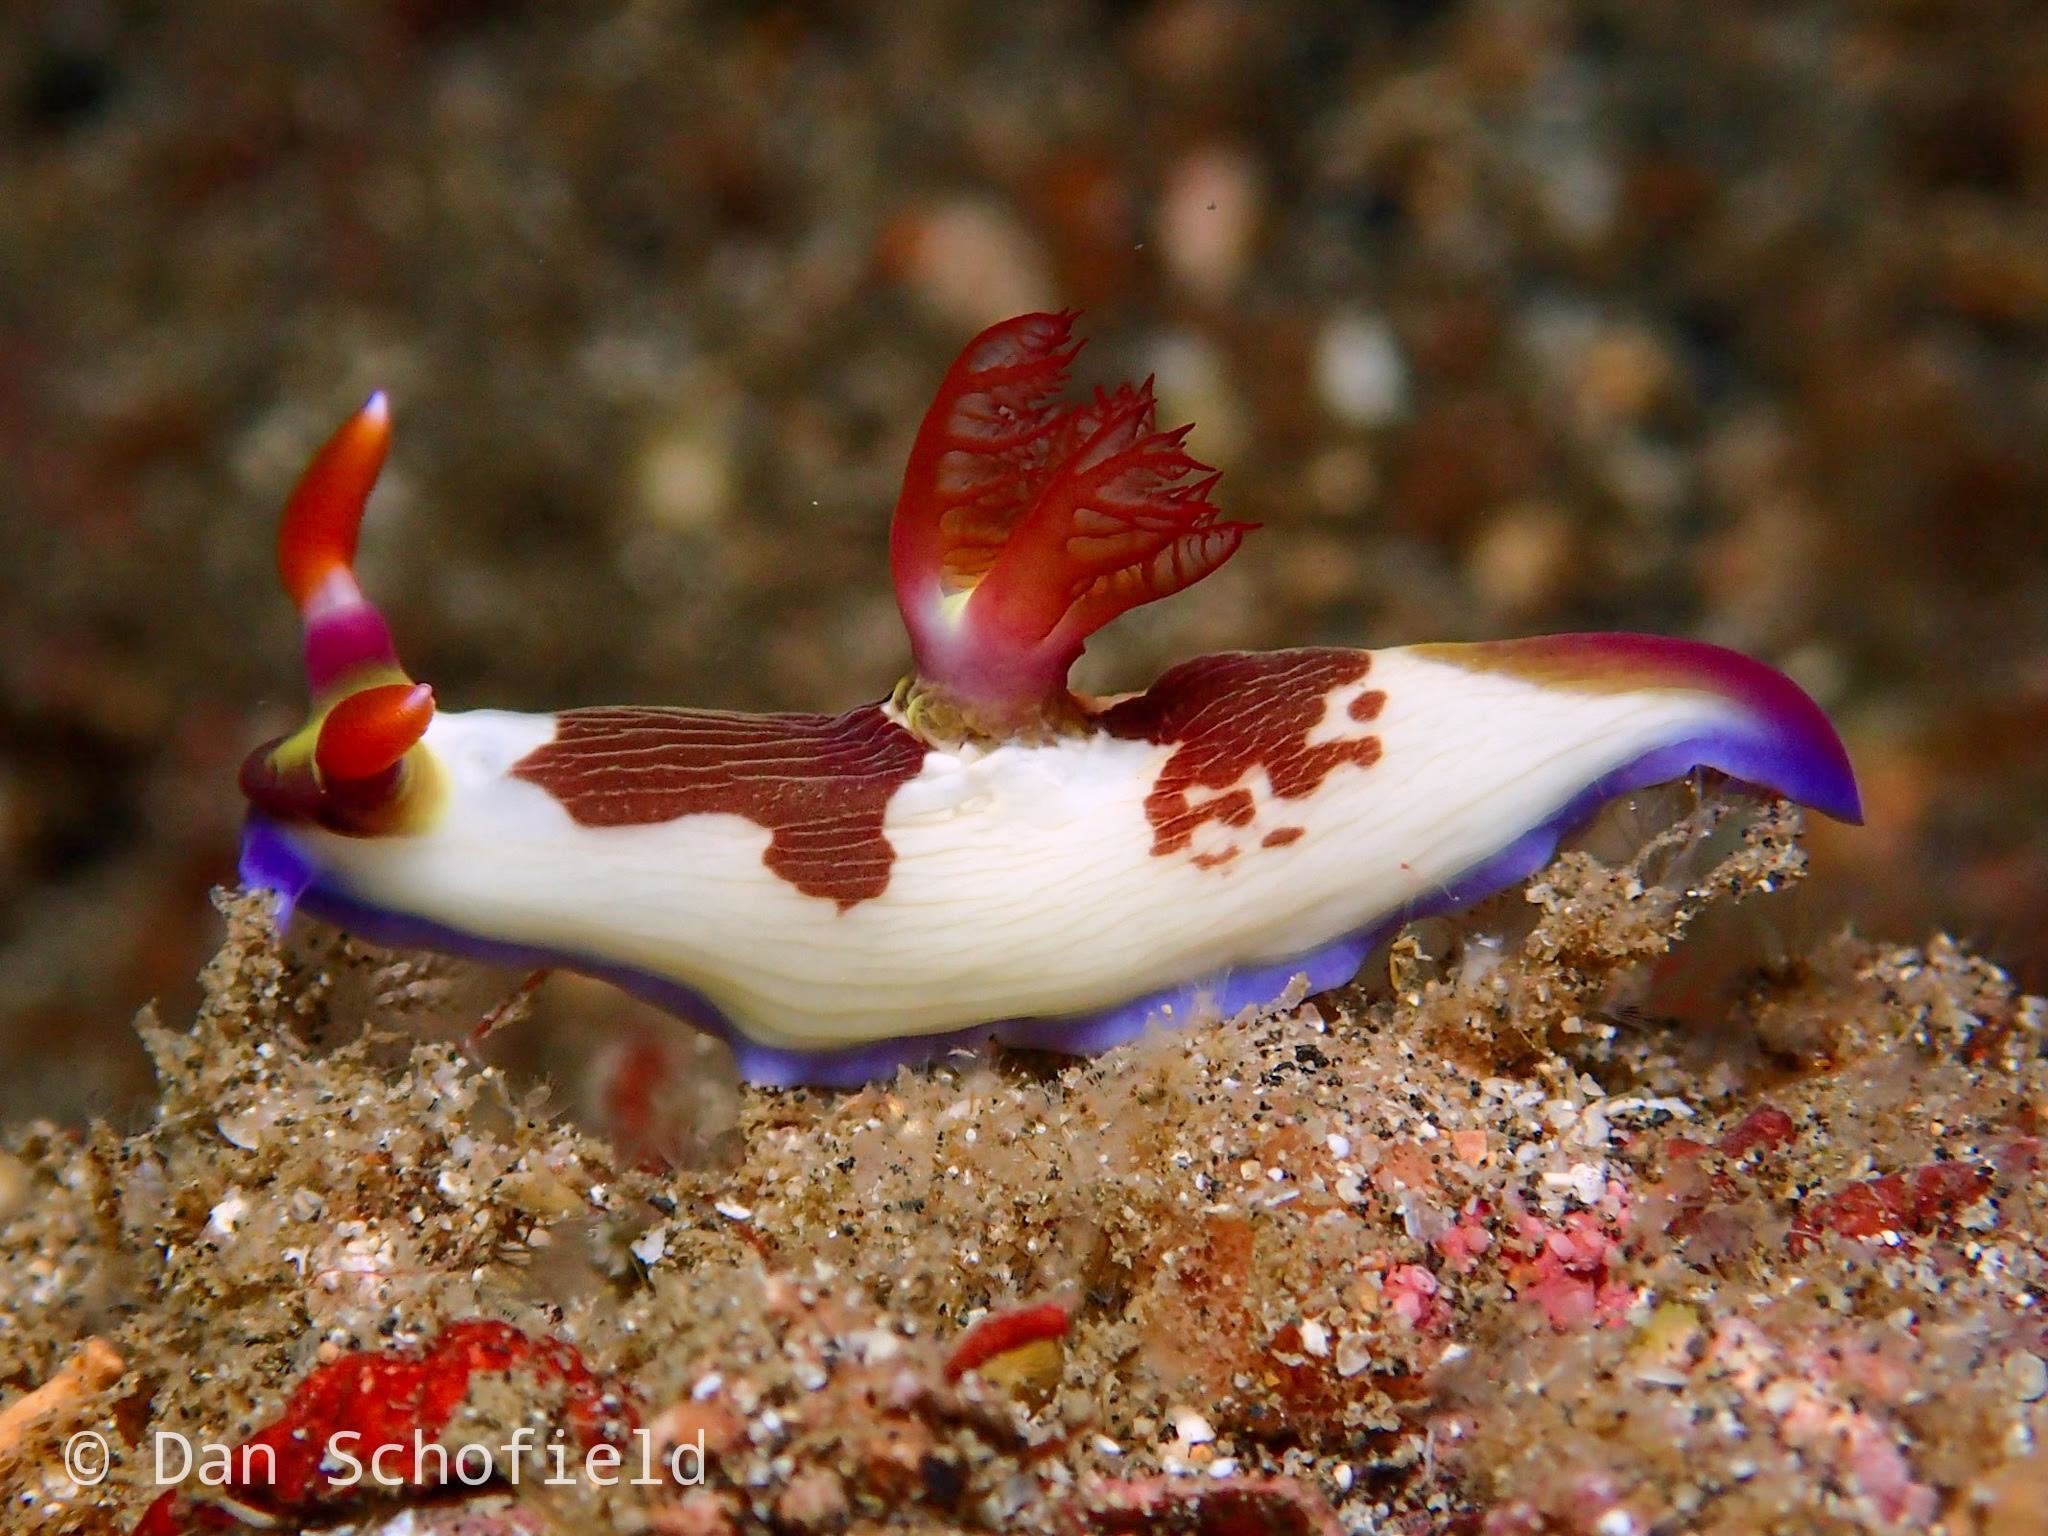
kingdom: Animalia
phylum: Mollusca
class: Gastropoda
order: Nudibranchia
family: Polyceridae
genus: Nembrotha
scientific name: Nembrotha chamberlaini
